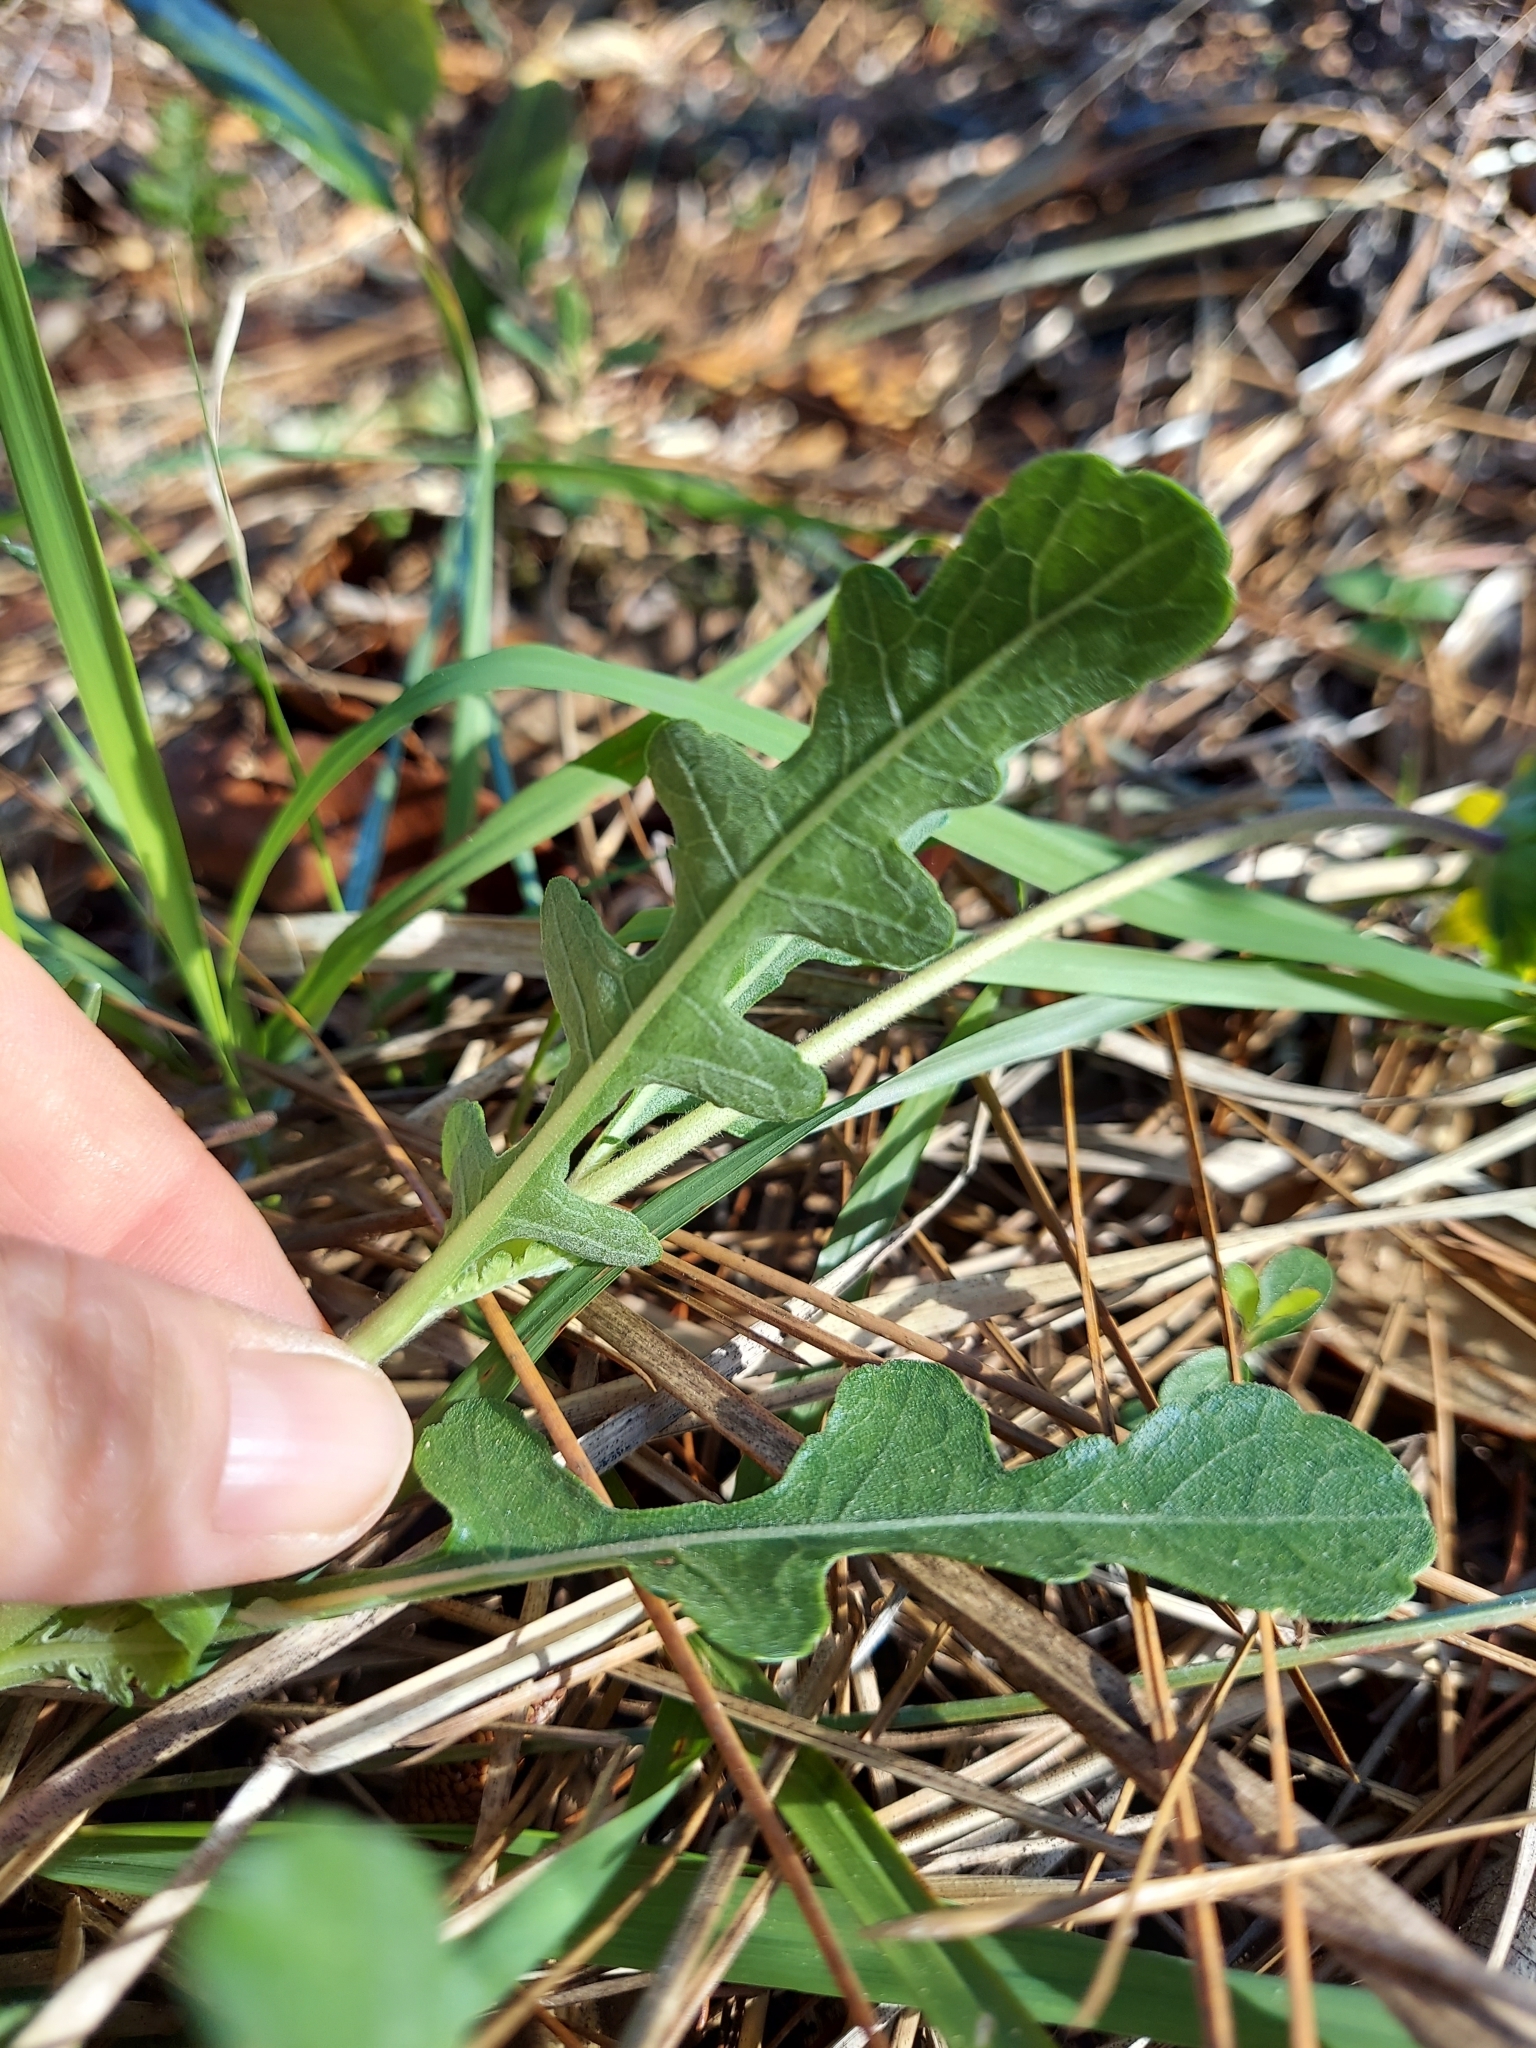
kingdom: Plantae
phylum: Tracheophyta
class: Magnoliopsida
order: Asterales
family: Asteraceae
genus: Berlandiera
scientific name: Berlandiera subacaulis
